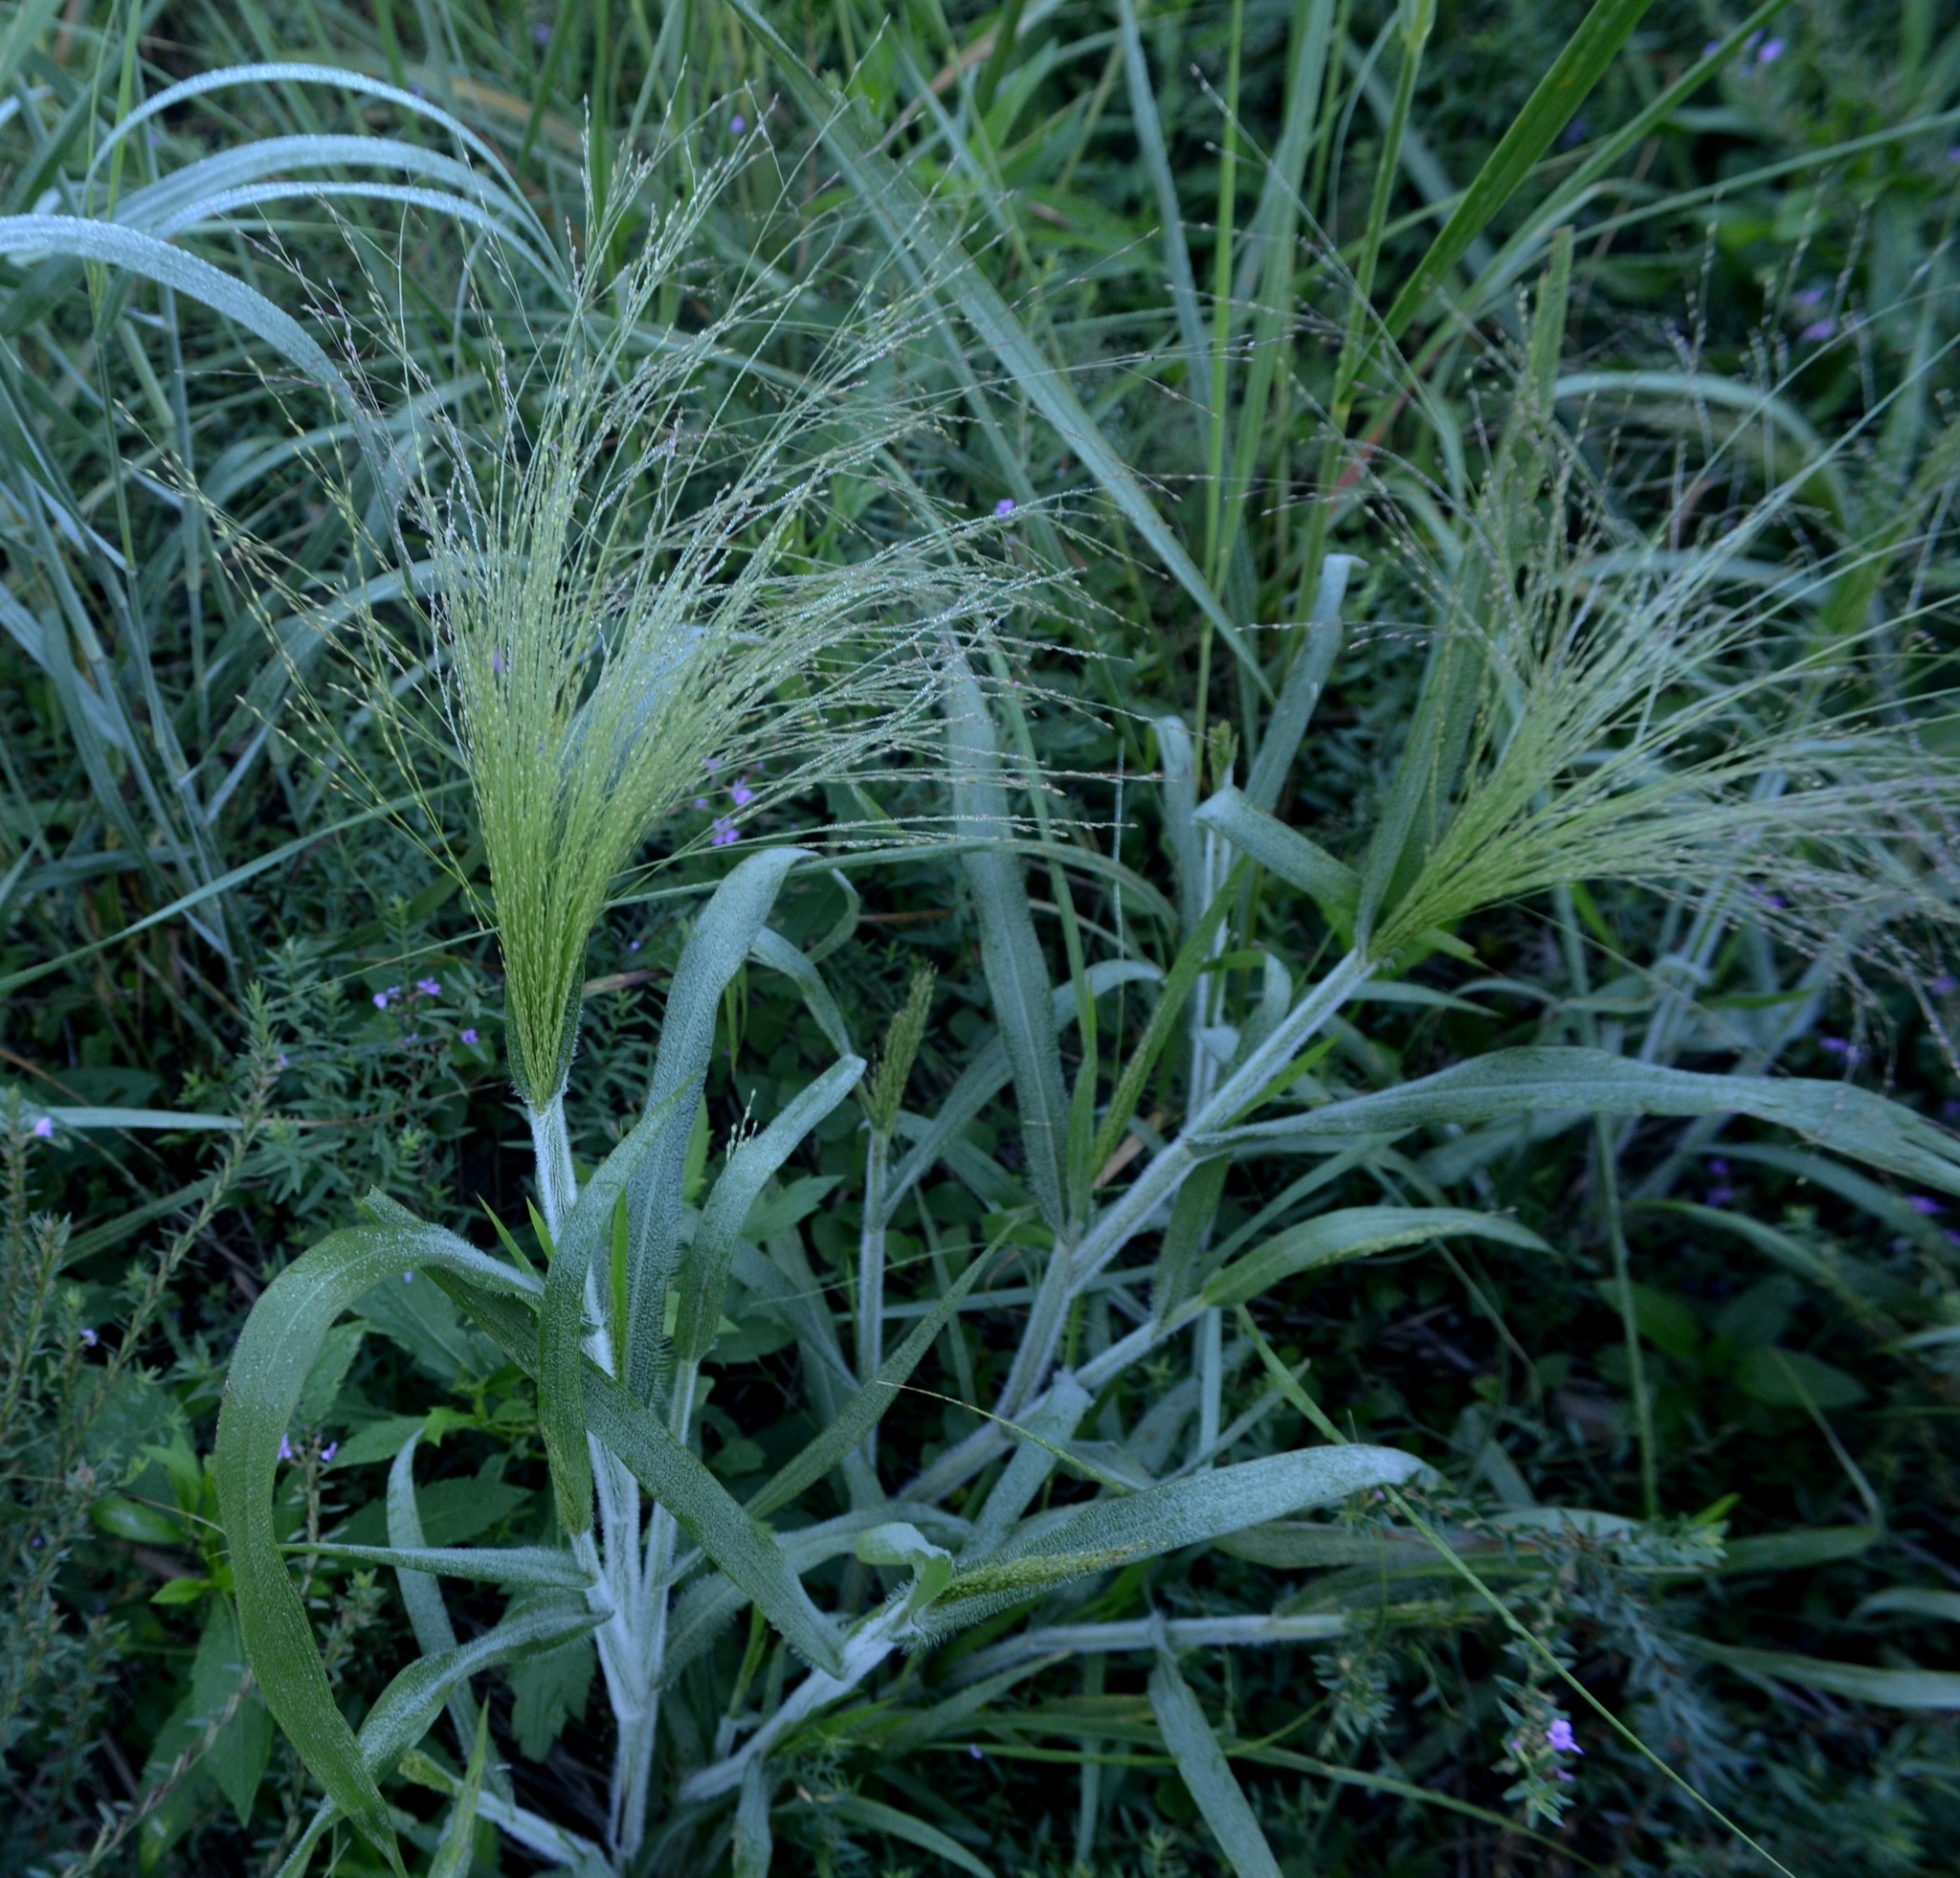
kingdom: Plantae
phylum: Tracheophyta
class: Liliopsida
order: Poales
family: Poaceae
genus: Panicum
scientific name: Panicum capillare
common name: Witch-grass
